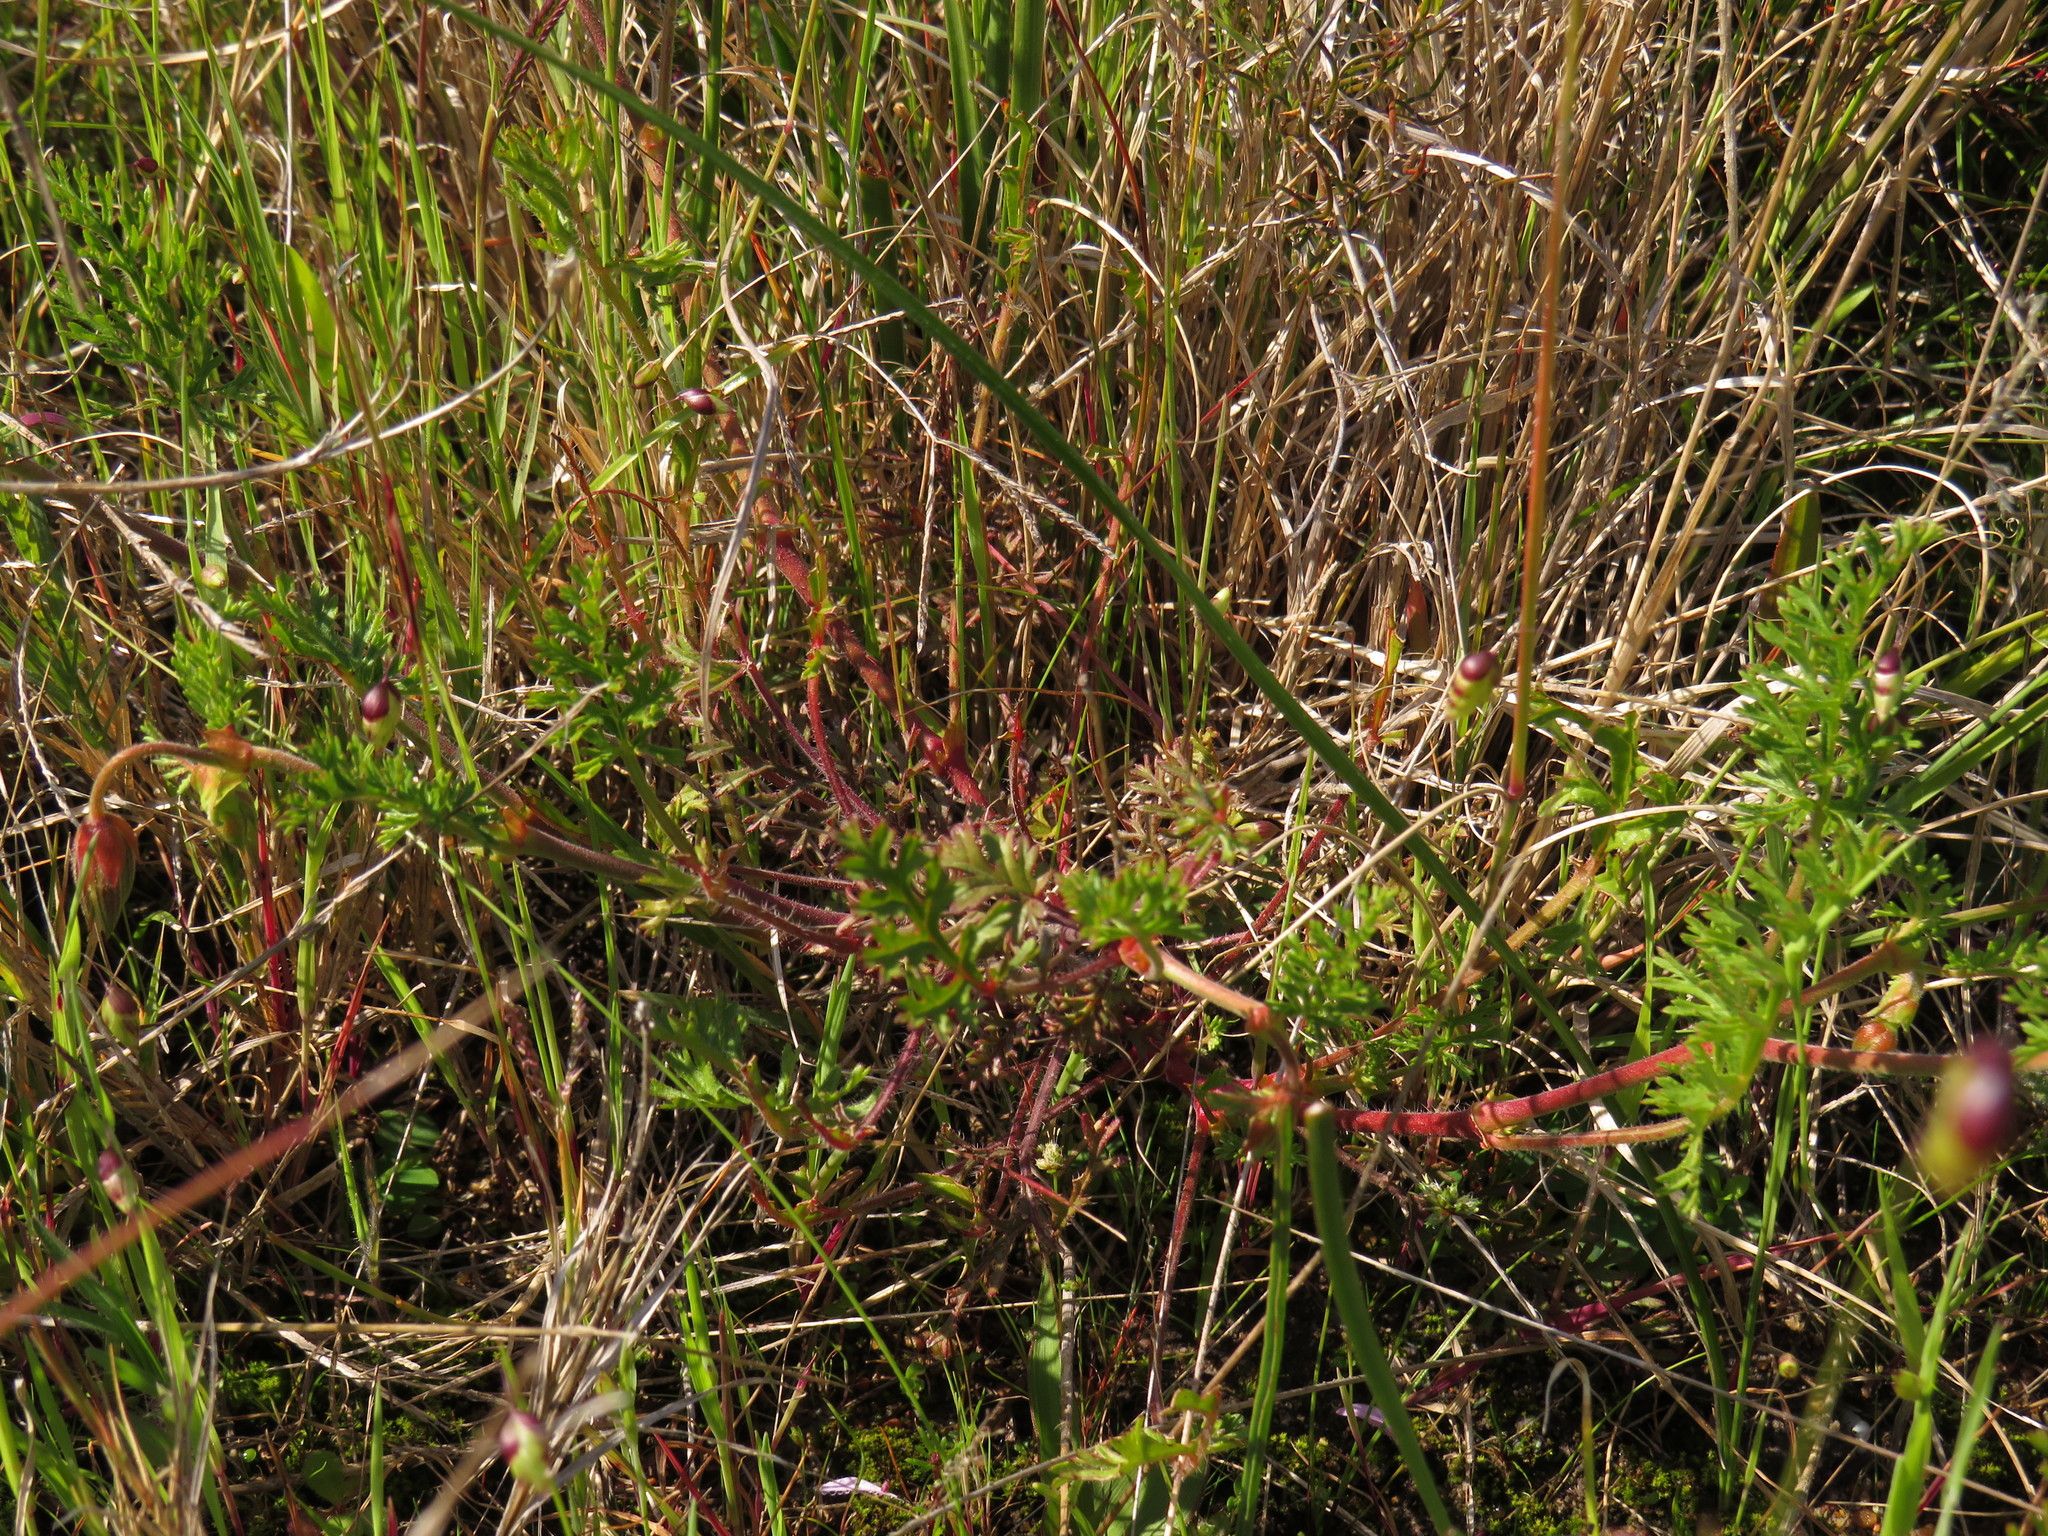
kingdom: Plantae
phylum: Tracheophyta
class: Magnoliopsida
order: Geraniales
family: Geraniaceae
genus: Pelargonium
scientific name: Pelargonium myrrhifolium
